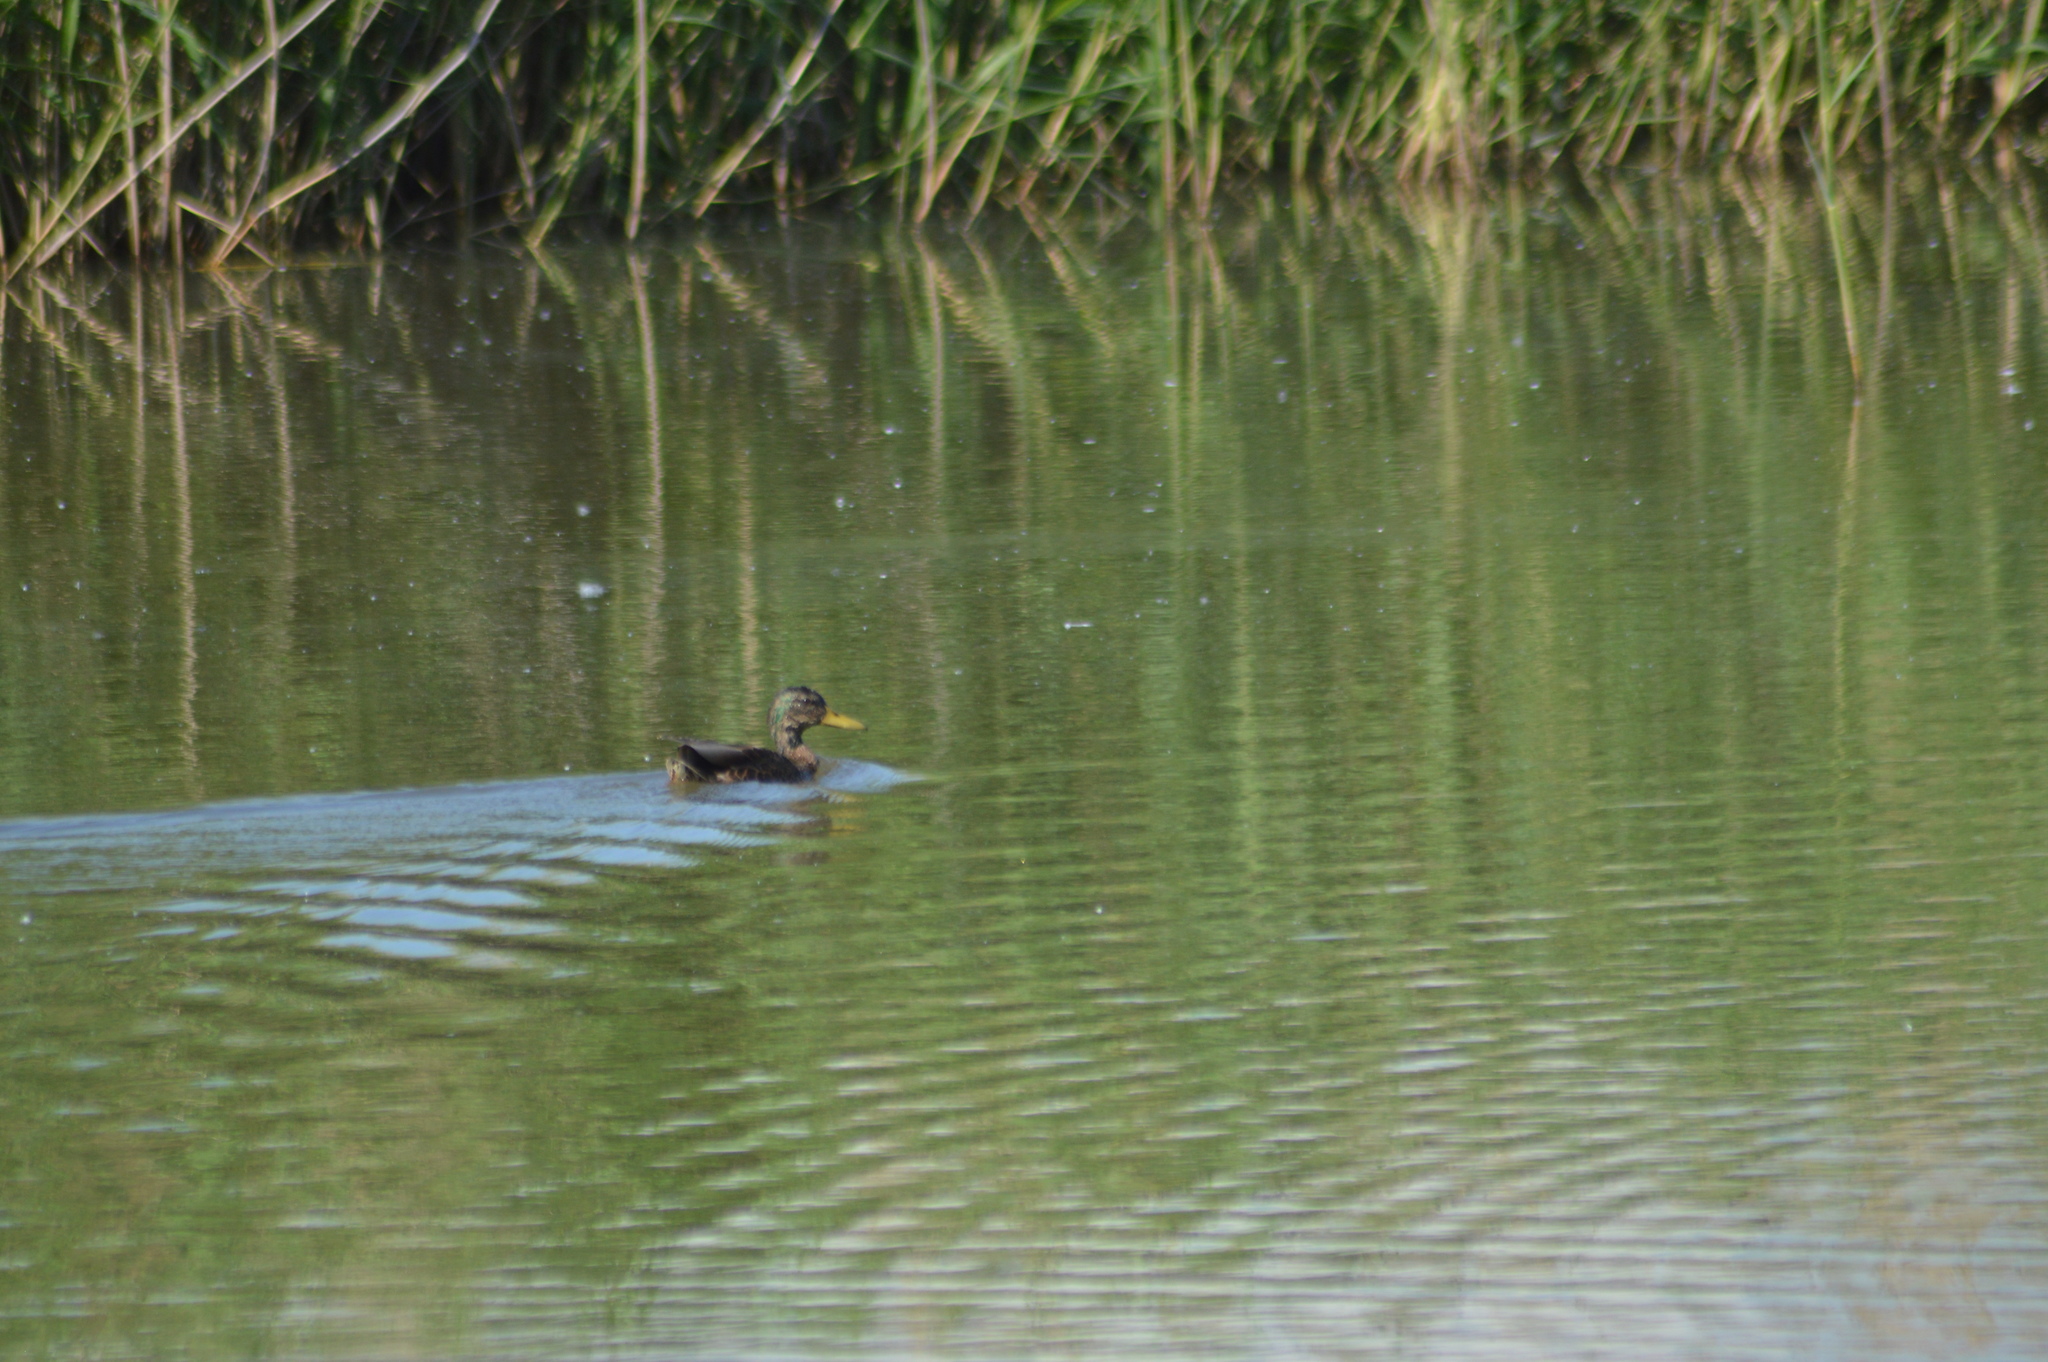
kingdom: Animalia
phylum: Chordata
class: Aves
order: Anseriformes
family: Anatidae
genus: Anas
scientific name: Anas platyrhynchos
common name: Mallard
